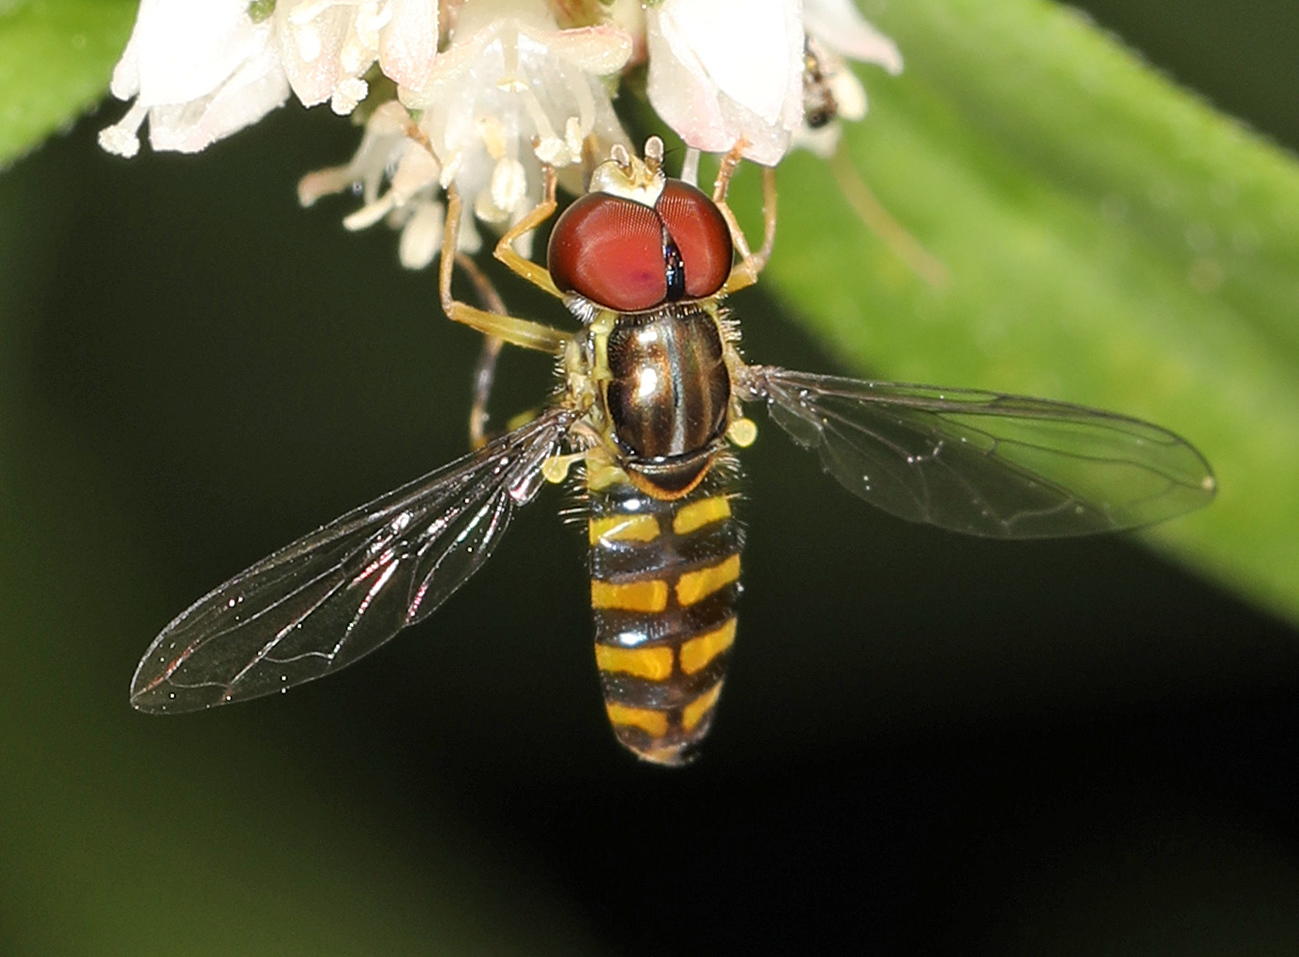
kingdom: Animalia
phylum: Arthropoda
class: Insecta
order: Diptera
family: Syrphidae
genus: Toxomerus
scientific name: Toxomerus verticalis
